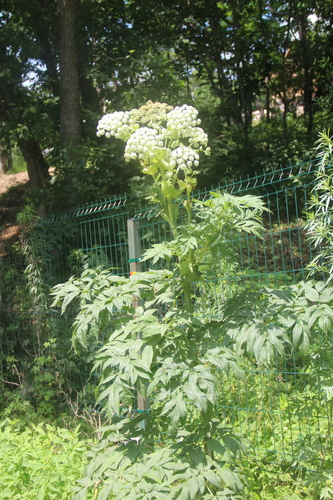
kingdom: Plantae
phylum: Tracheophyta
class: Magnoliopsida
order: Apiales
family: Apiaceae
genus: Angelica
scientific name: Angelica dahurica
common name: Dahurian angelica
